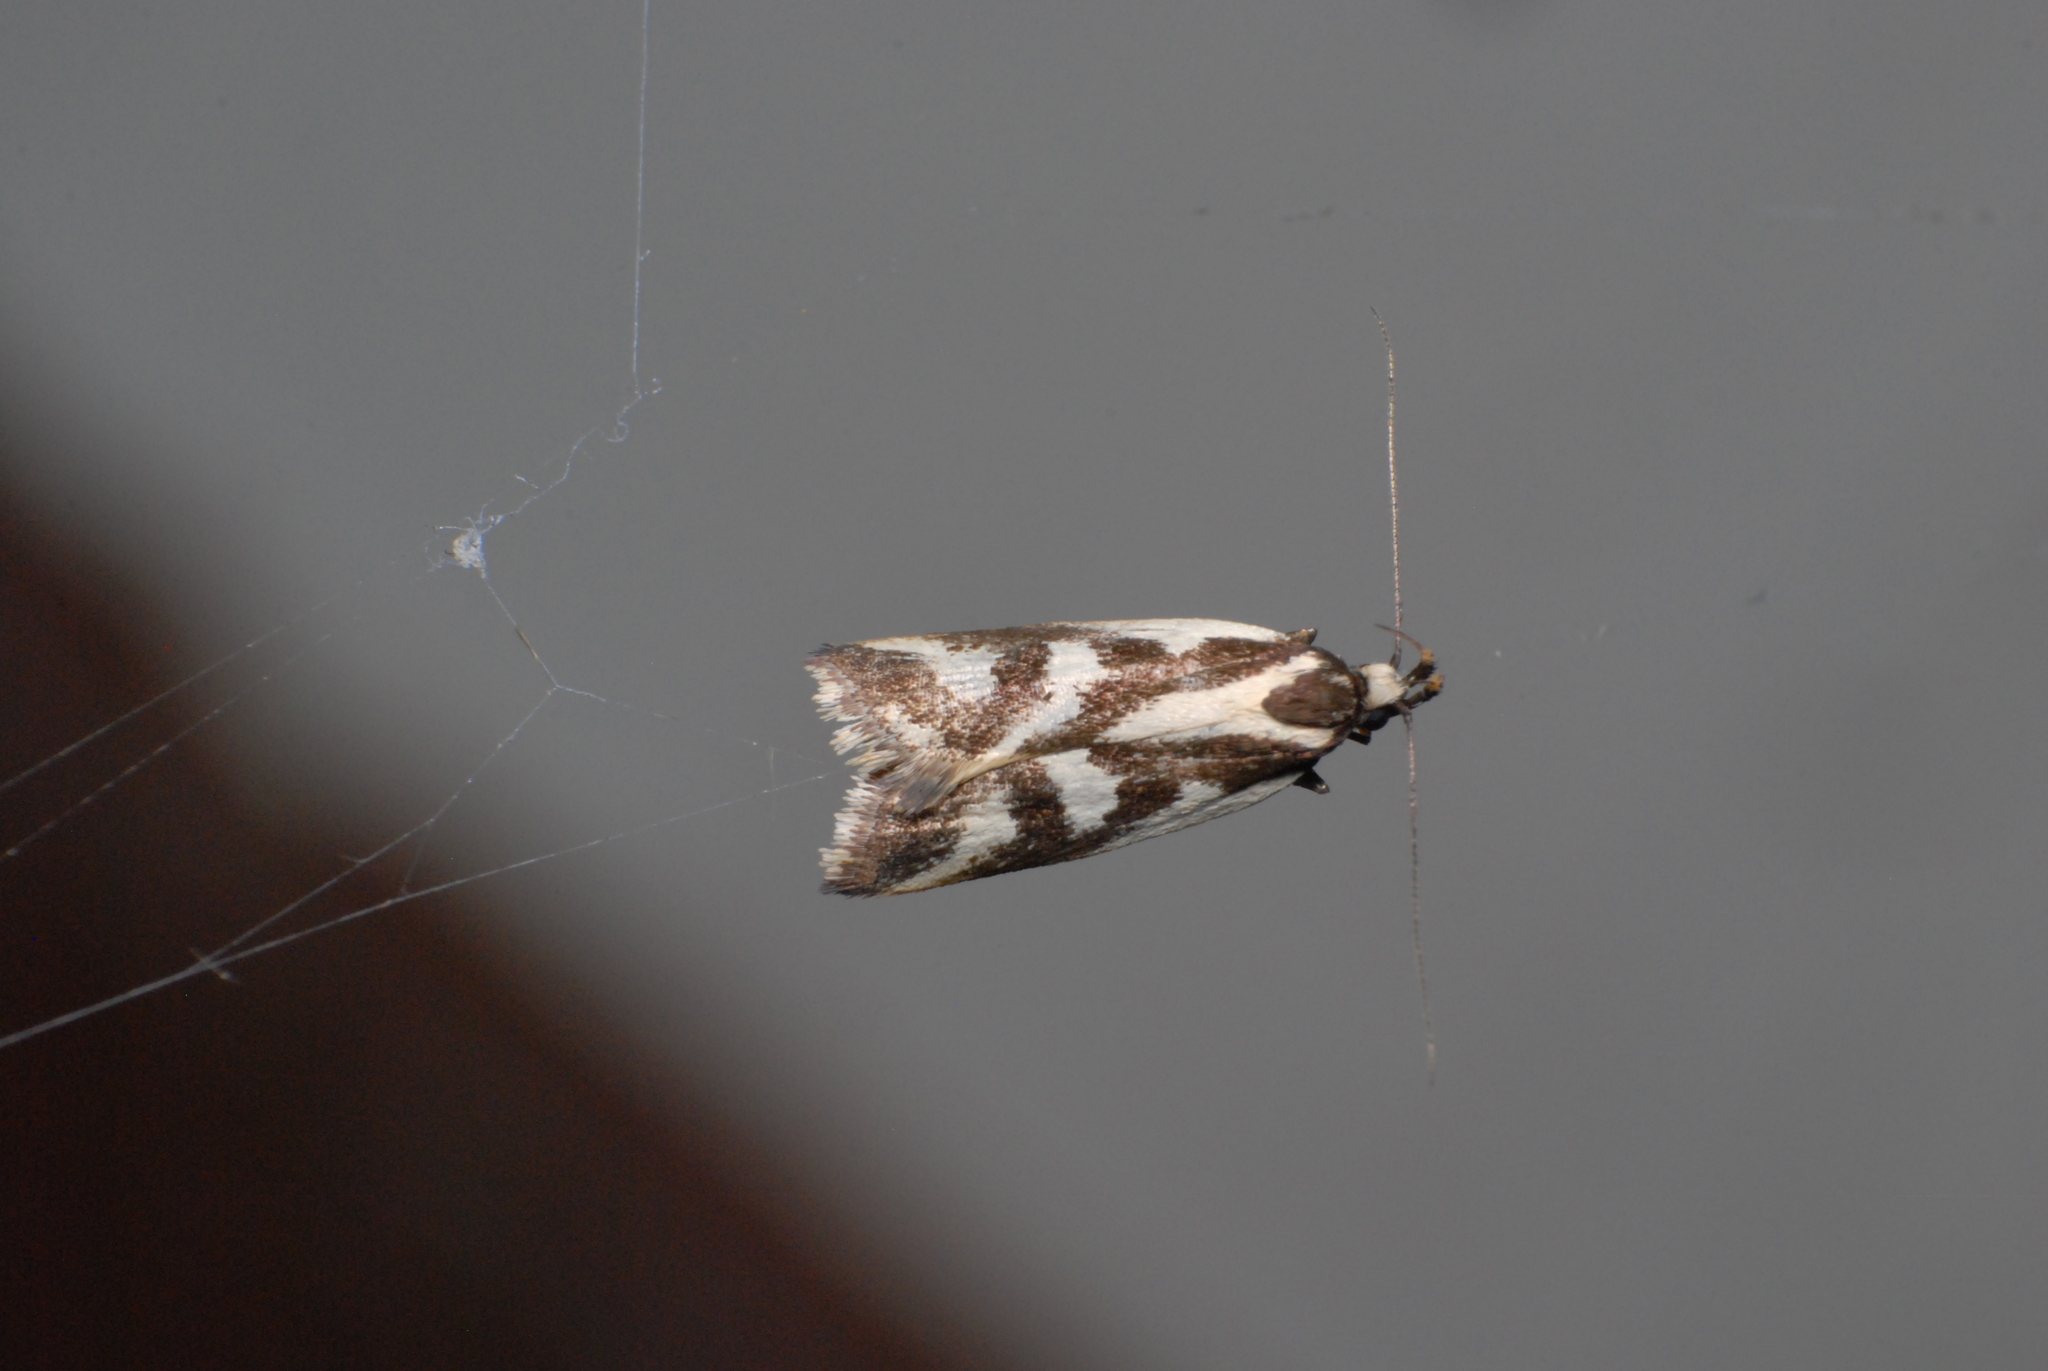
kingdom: Animalia
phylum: Arthropoda
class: Insecta
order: Lepidoptera
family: Oecophoridae
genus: Epithymema
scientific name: Epithymema incomposita
